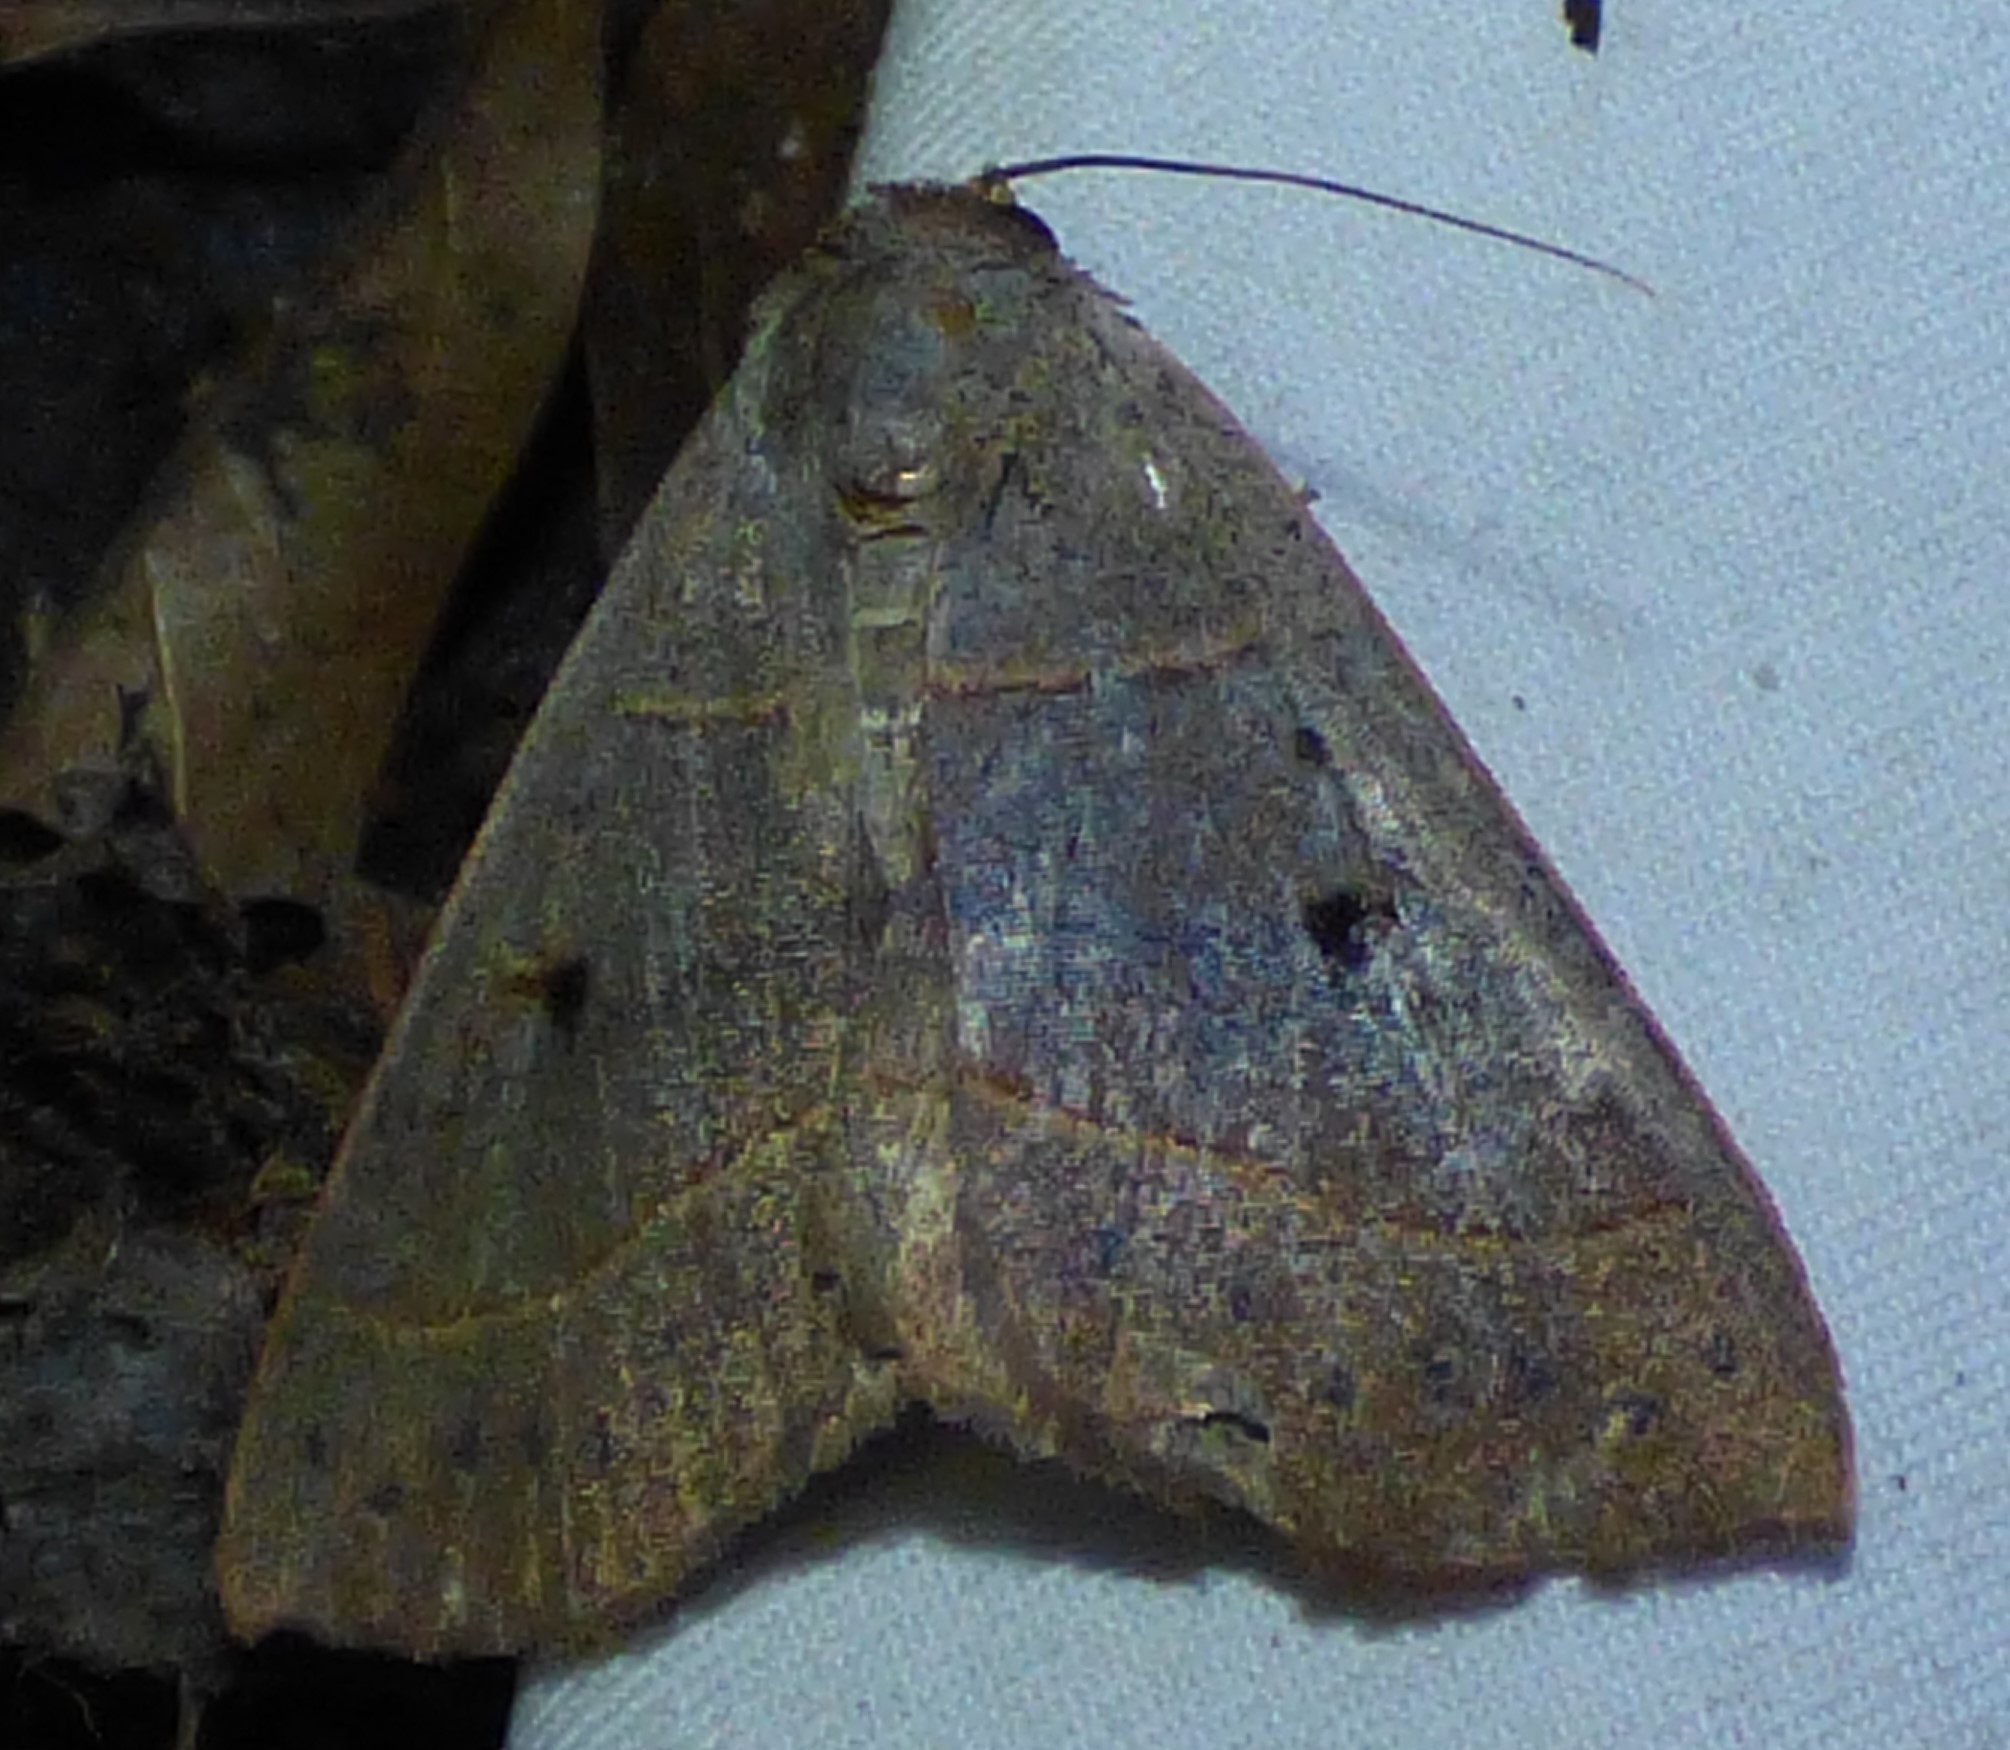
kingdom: Animalia
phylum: Arthropoda
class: Insecta
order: Lepidoptera
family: Erebidae
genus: Panopoda
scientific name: Panopoda rufimargo
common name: Red-lined panopoda moth
